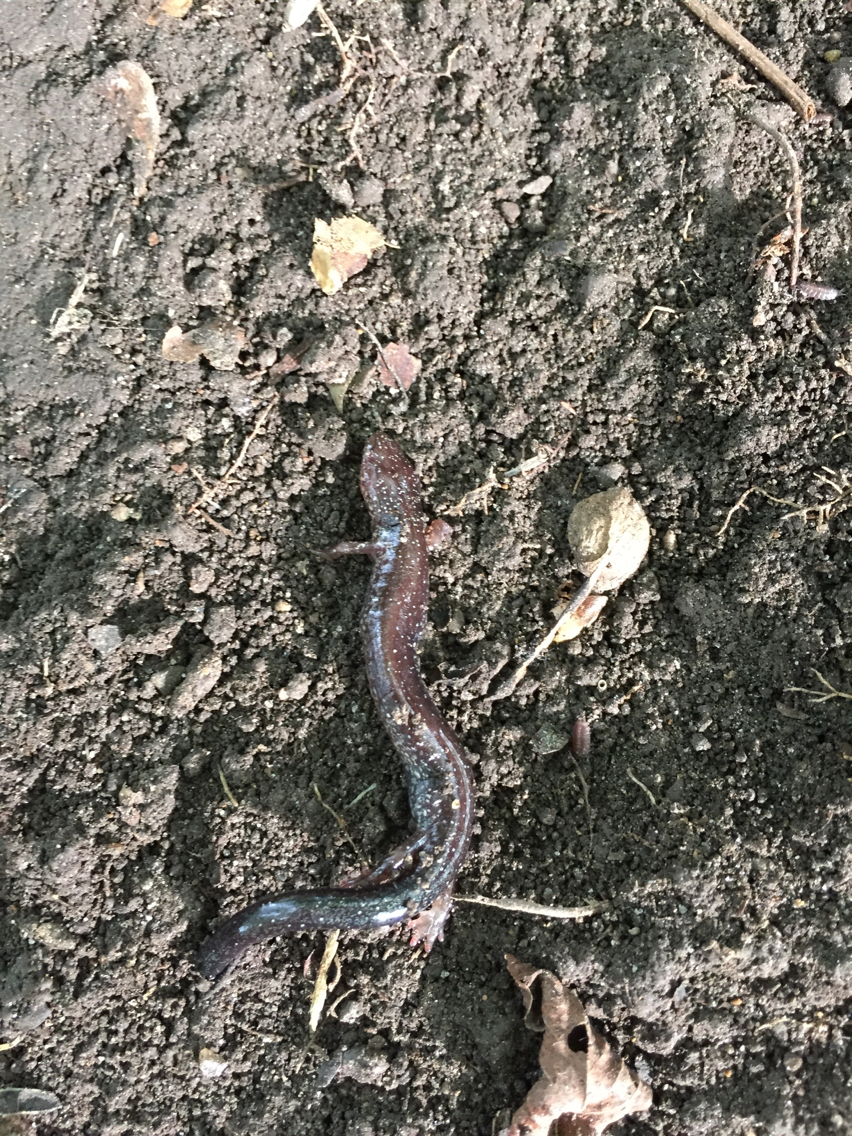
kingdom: Animalia
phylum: Chordata
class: Amphibia
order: Caudata
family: Plethodontidae
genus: Plethodon
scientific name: Plethodon cinereus
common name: Redback salamander
